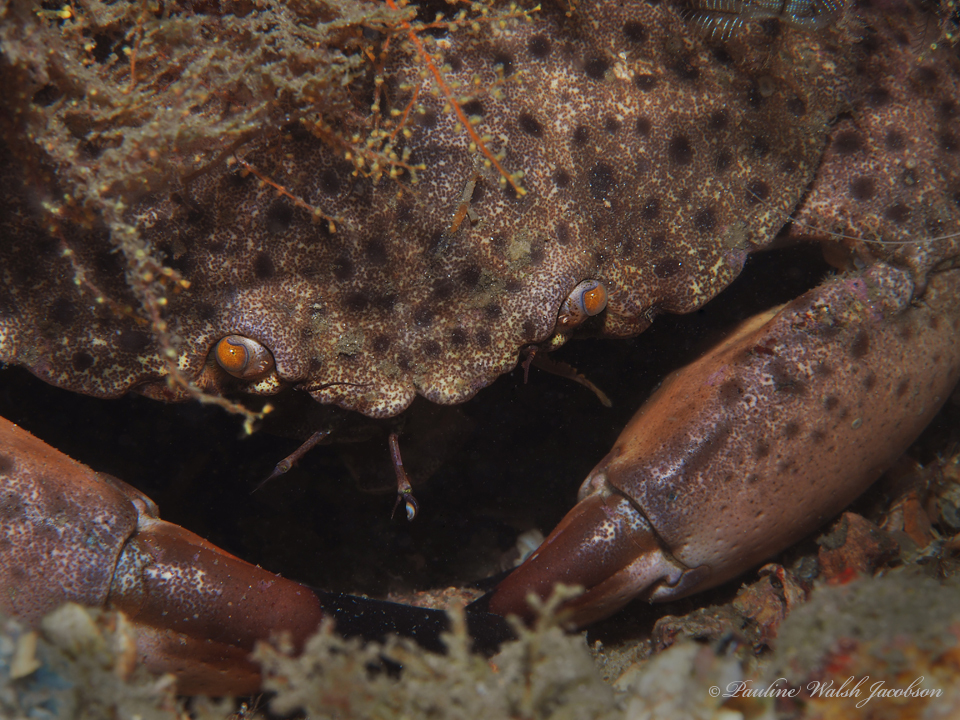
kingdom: Animalia
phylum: Arthropoda
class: Malacostraca
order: Decapoda
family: Menippidae
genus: Menippe
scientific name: Menippe mercenaria
